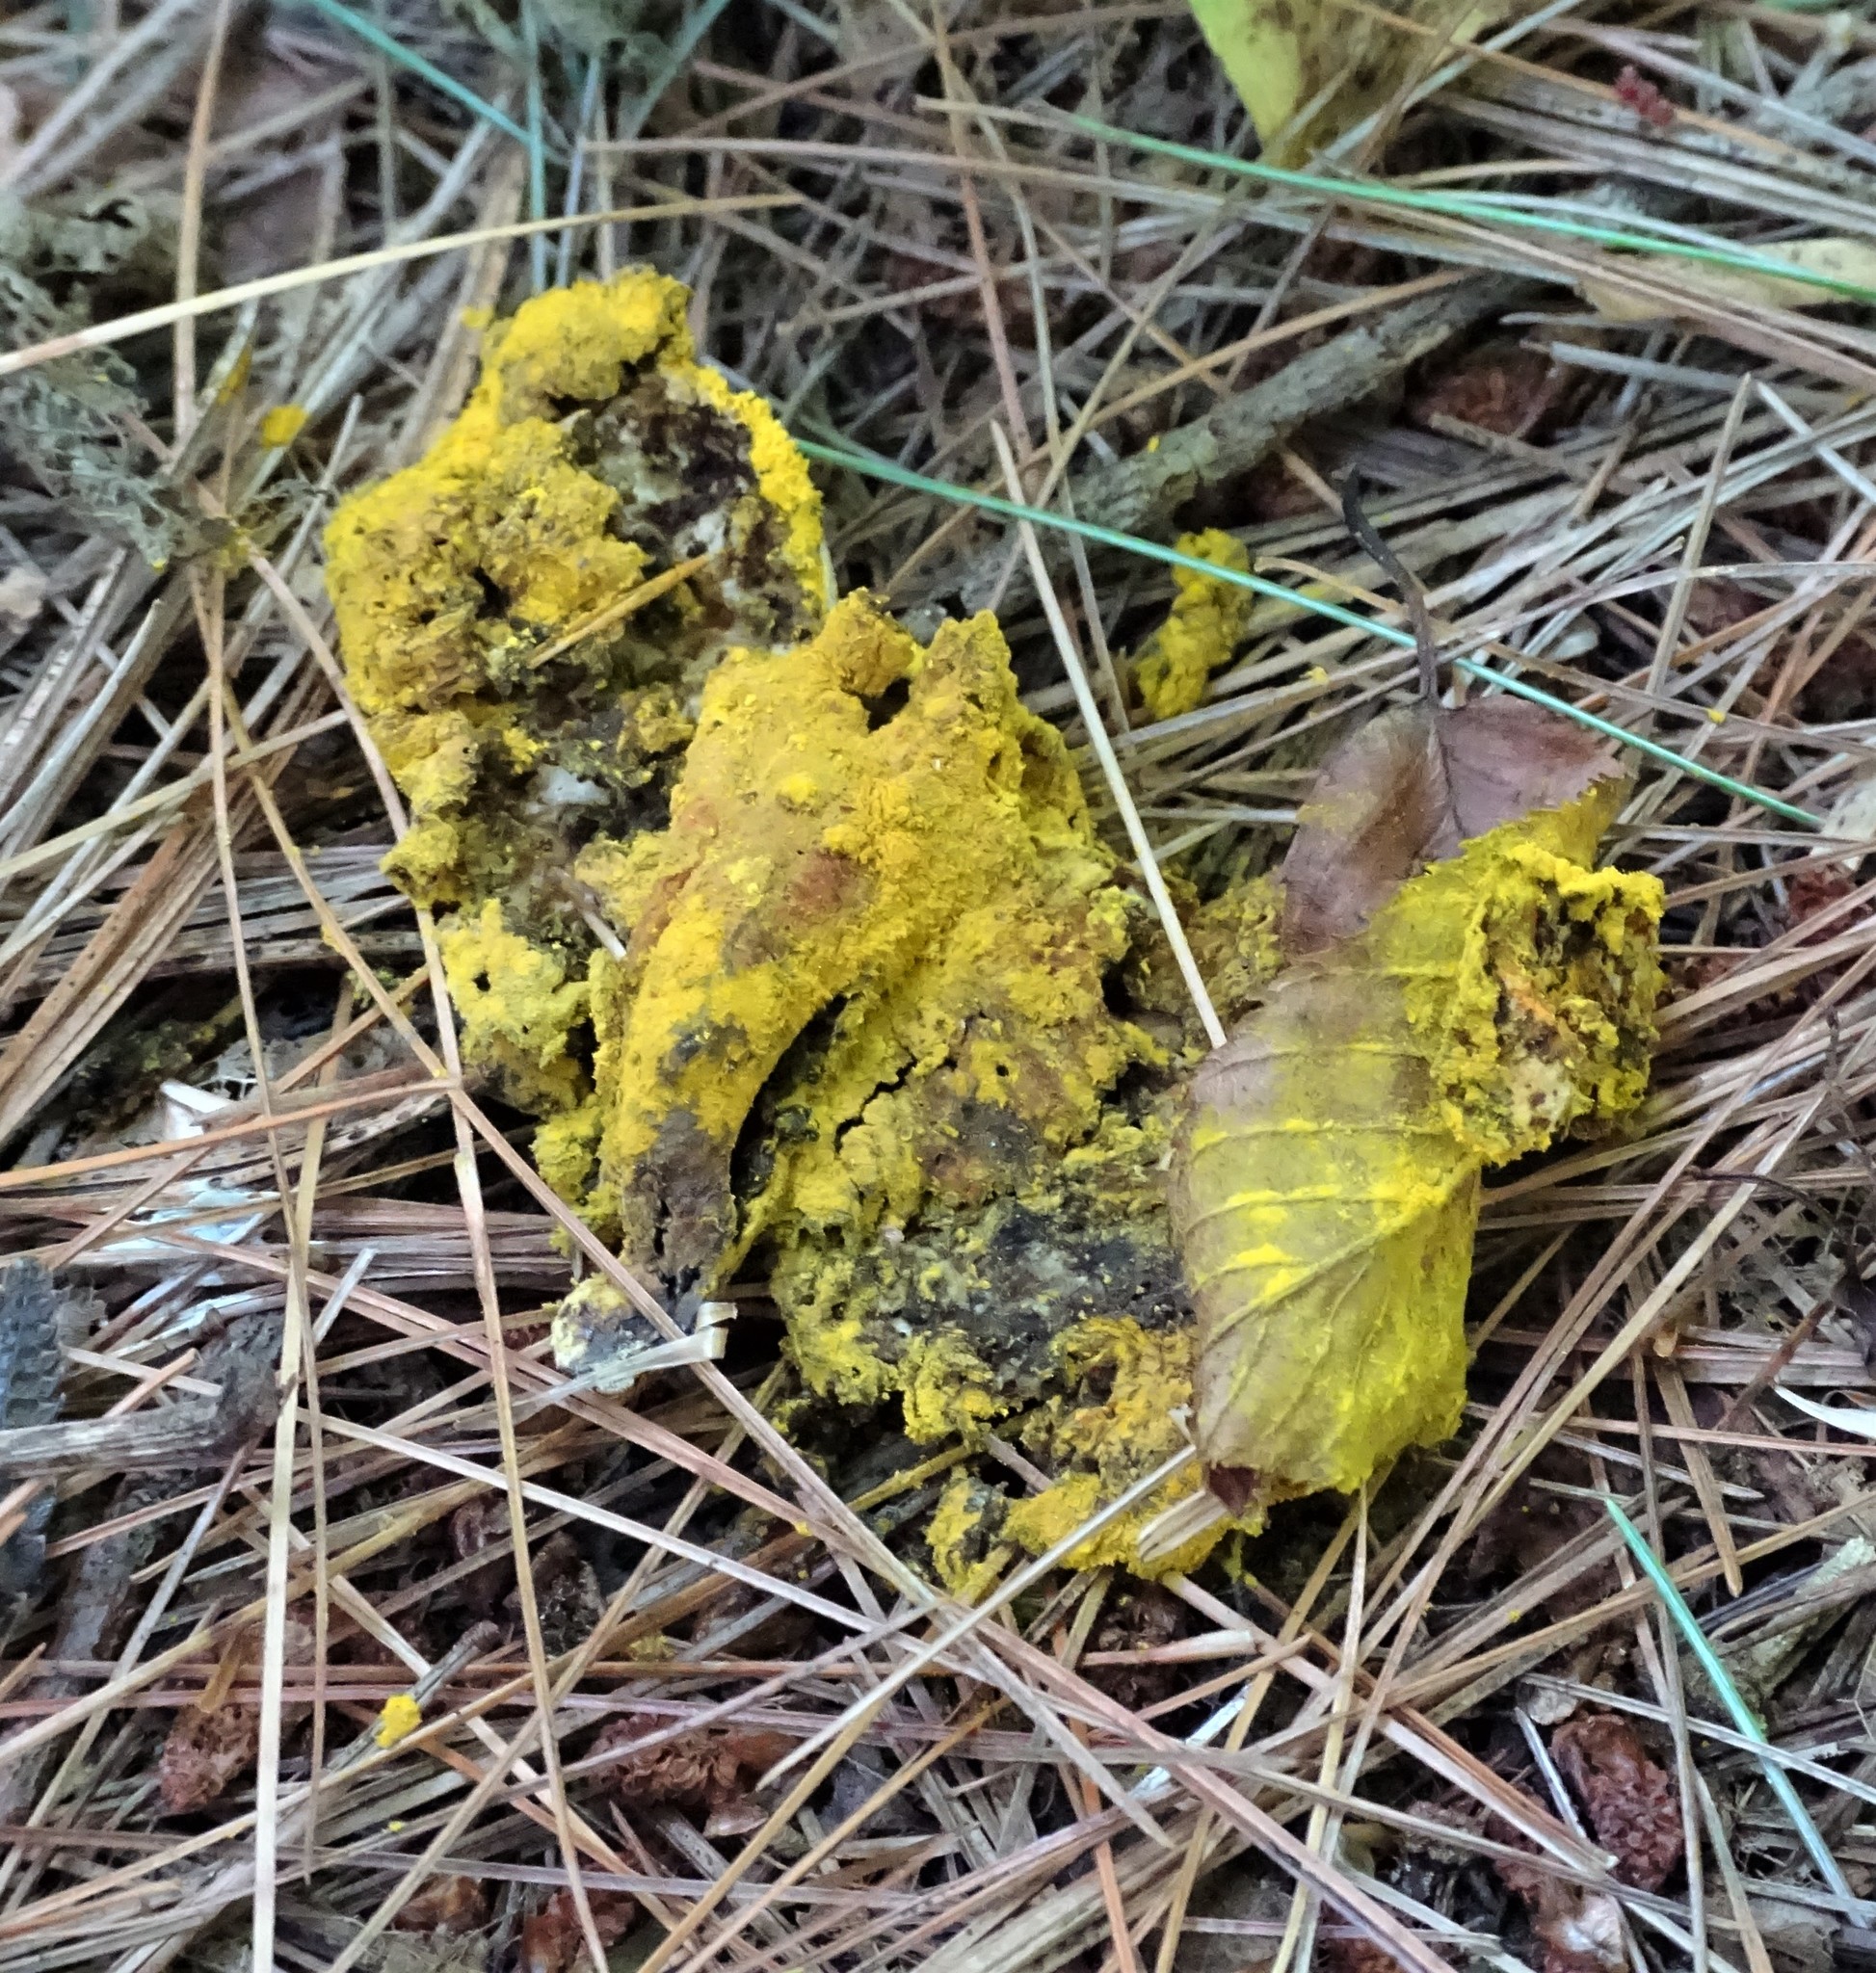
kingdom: Protozoa
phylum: Mycetozoa
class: Myxomycetes
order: Physarales
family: Physaraceae
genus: Fuligo
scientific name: Fuligo septica
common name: Dog vomit slime mold
